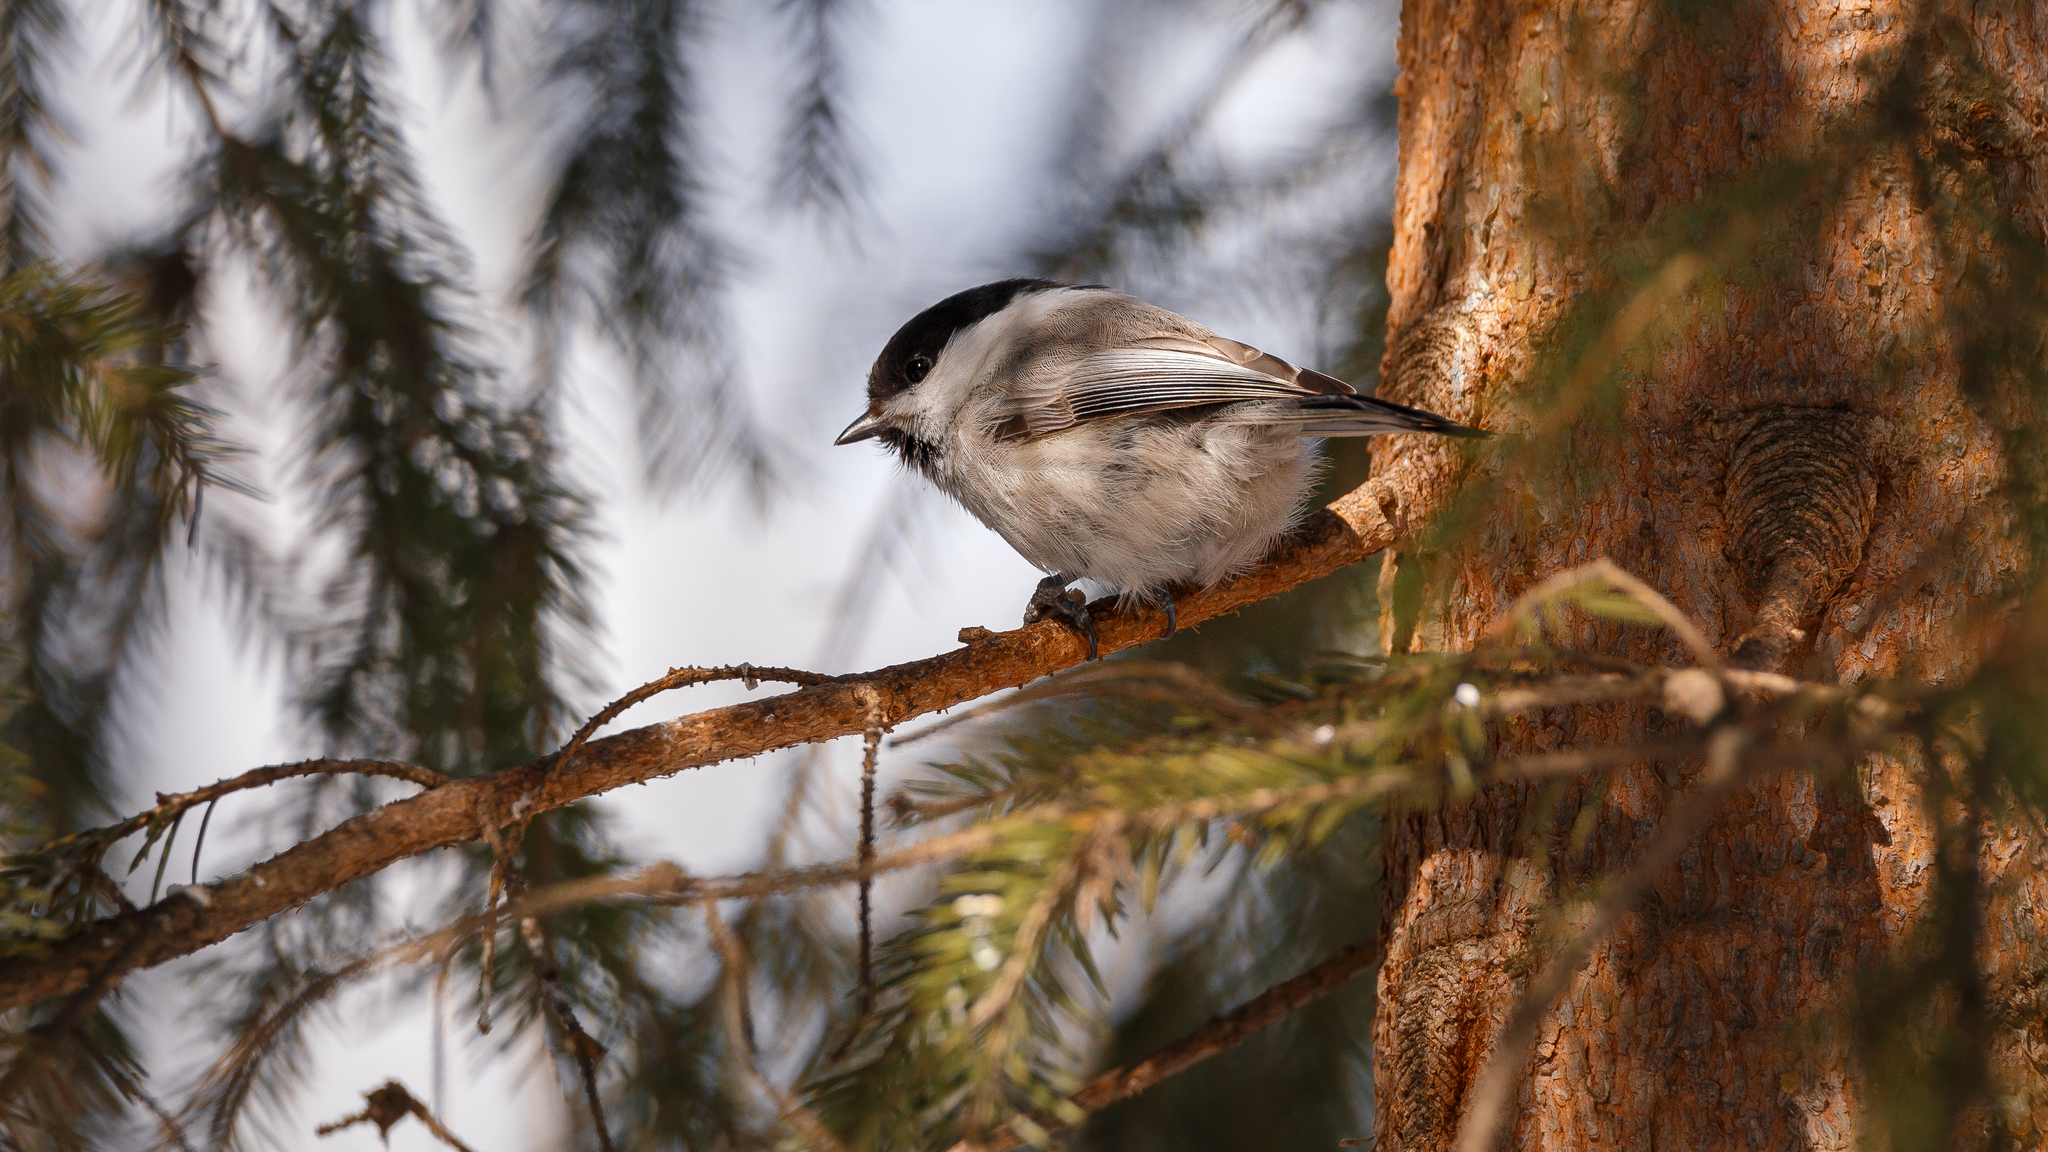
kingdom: Animalia
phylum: Chordata
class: Aves
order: Passeriformes
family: Paridae
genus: Poecile
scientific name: Poecile montanus
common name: Willow tit
